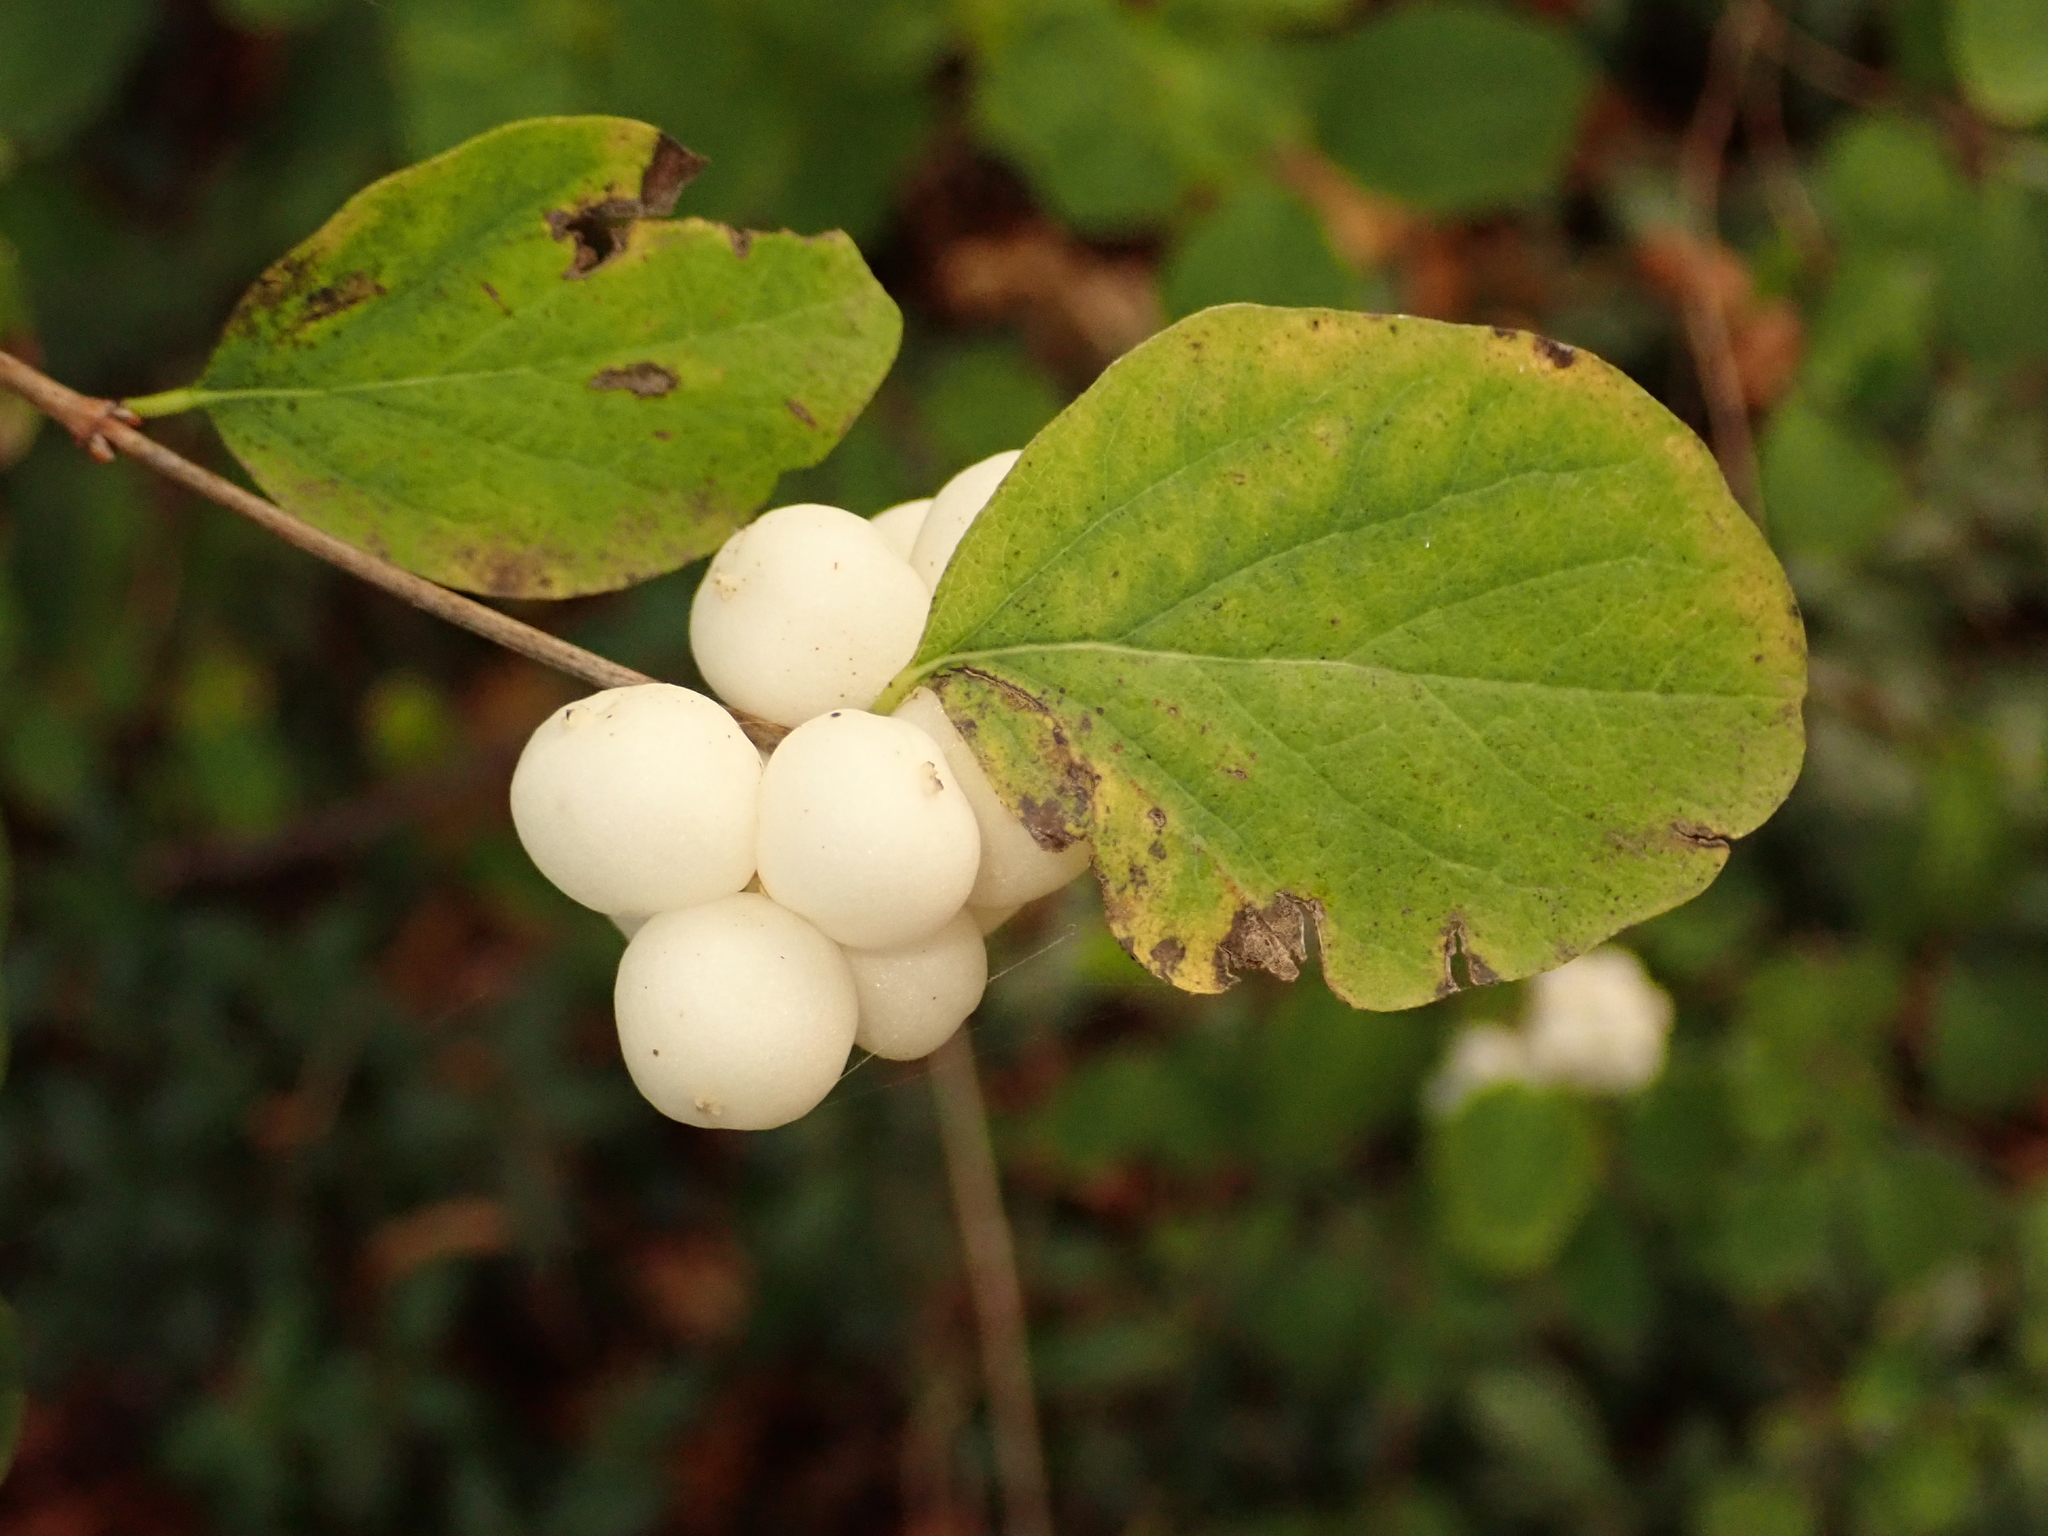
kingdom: Plantae
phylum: Tracheophyta
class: Magnoliopsida
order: Dipsacales
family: Caprifoliaceae
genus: Symphoricarpos
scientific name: Symphoricarpos albus
